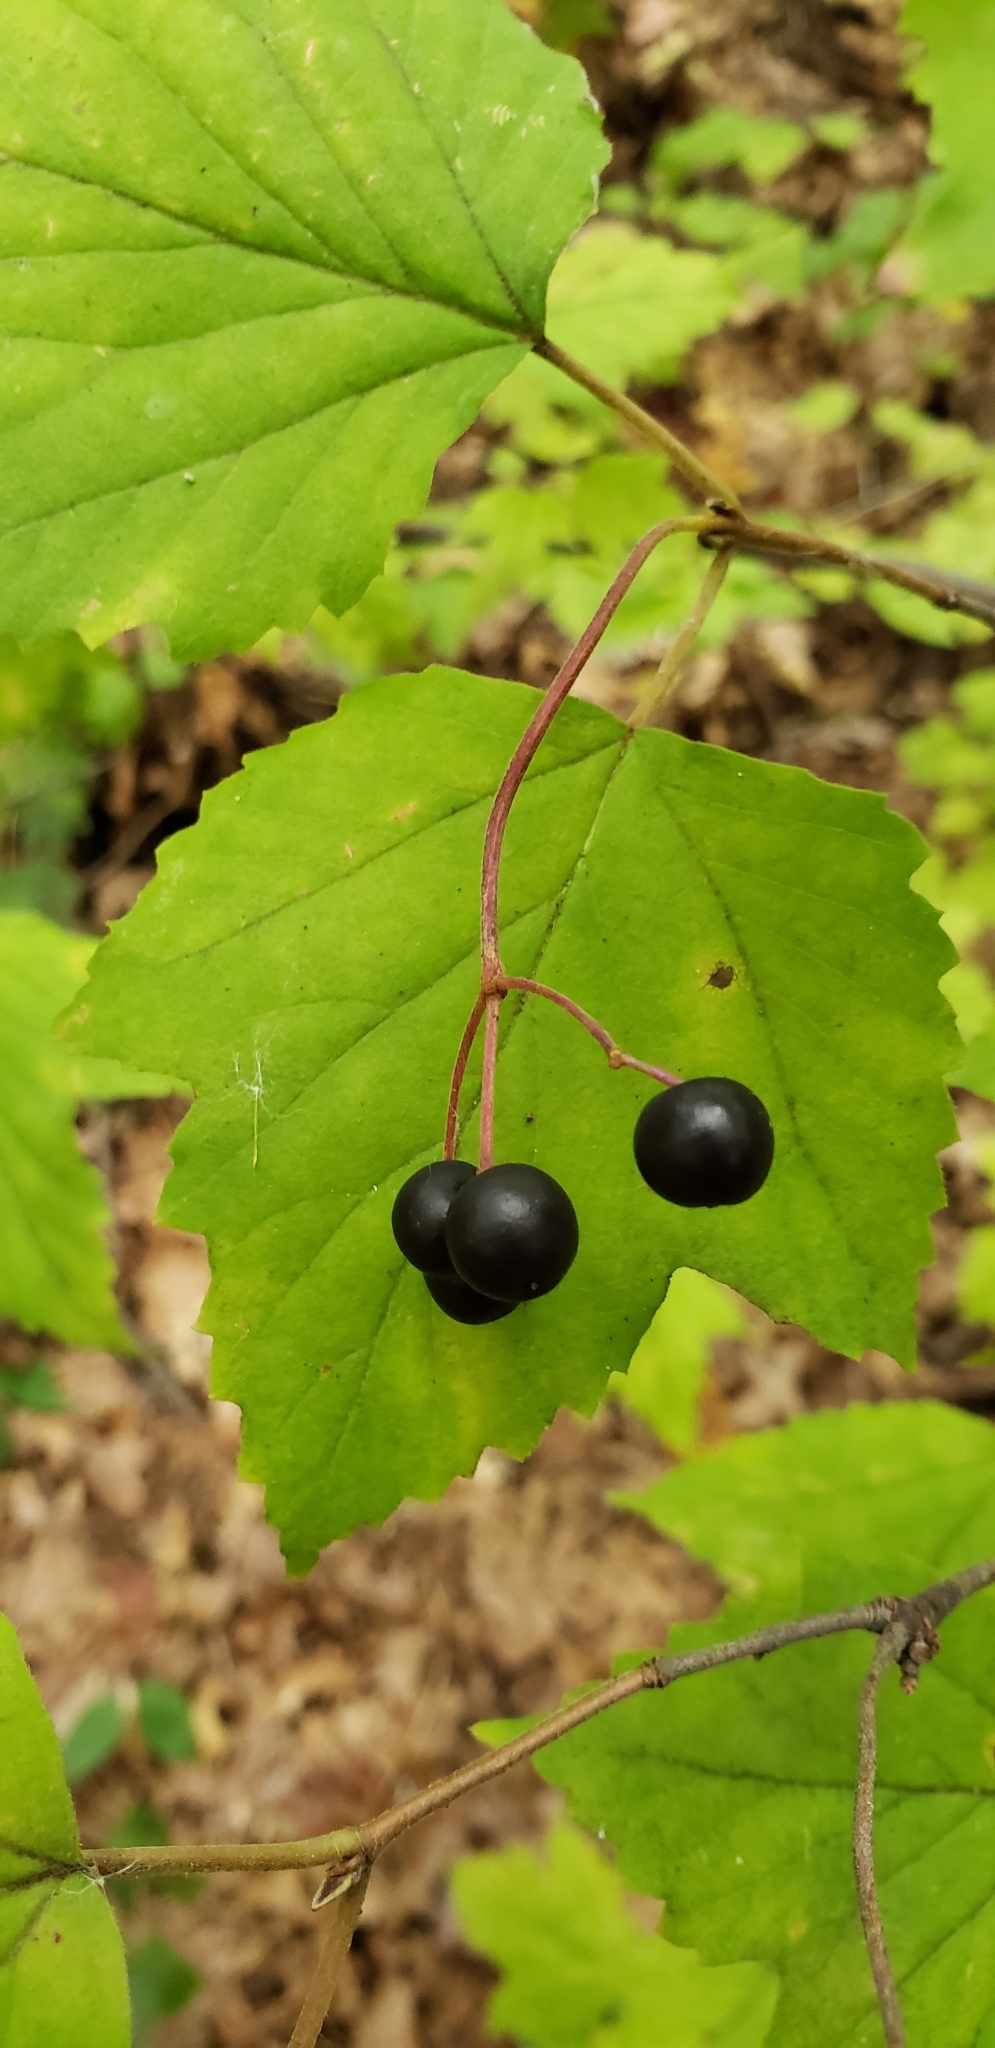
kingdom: Plantae
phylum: Tracheophyta
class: Magnoliopsida
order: Dipsacales
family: Viburnaceae
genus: Viburnum
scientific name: Viburnum acerifolium
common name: Dockmackie
